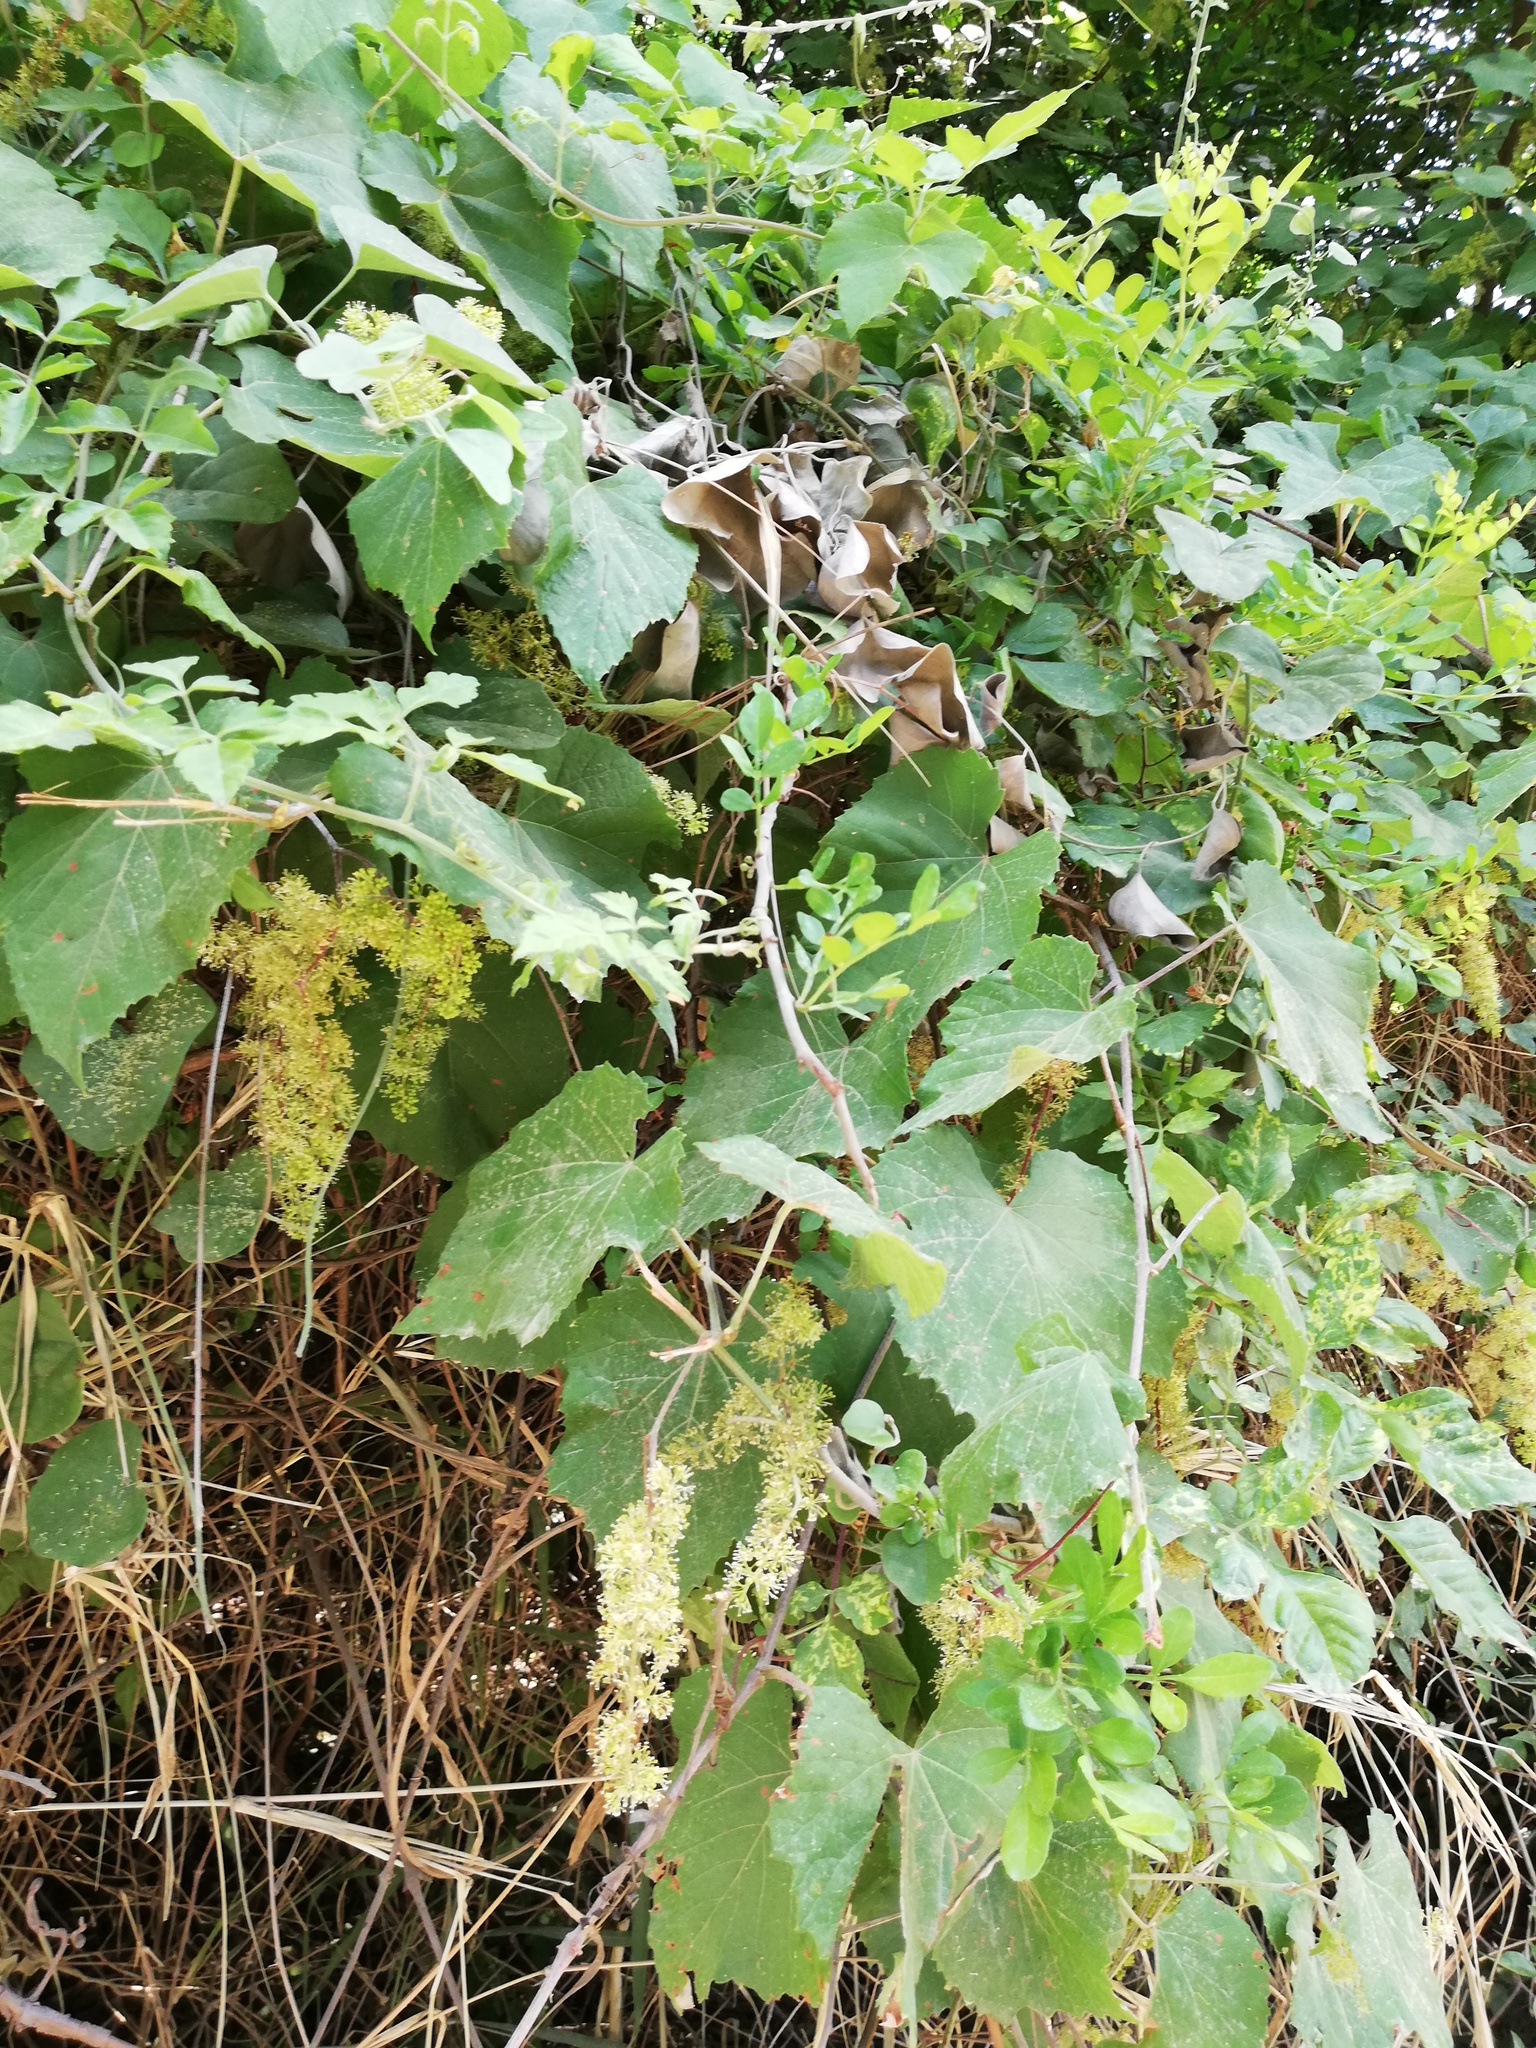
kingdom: Plantae
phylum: Tracheophyta
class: Magnoliopsida
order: Vitales
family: Vitaceae
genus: Vitis
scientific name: Vitis cinerea
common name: Ashy grape
